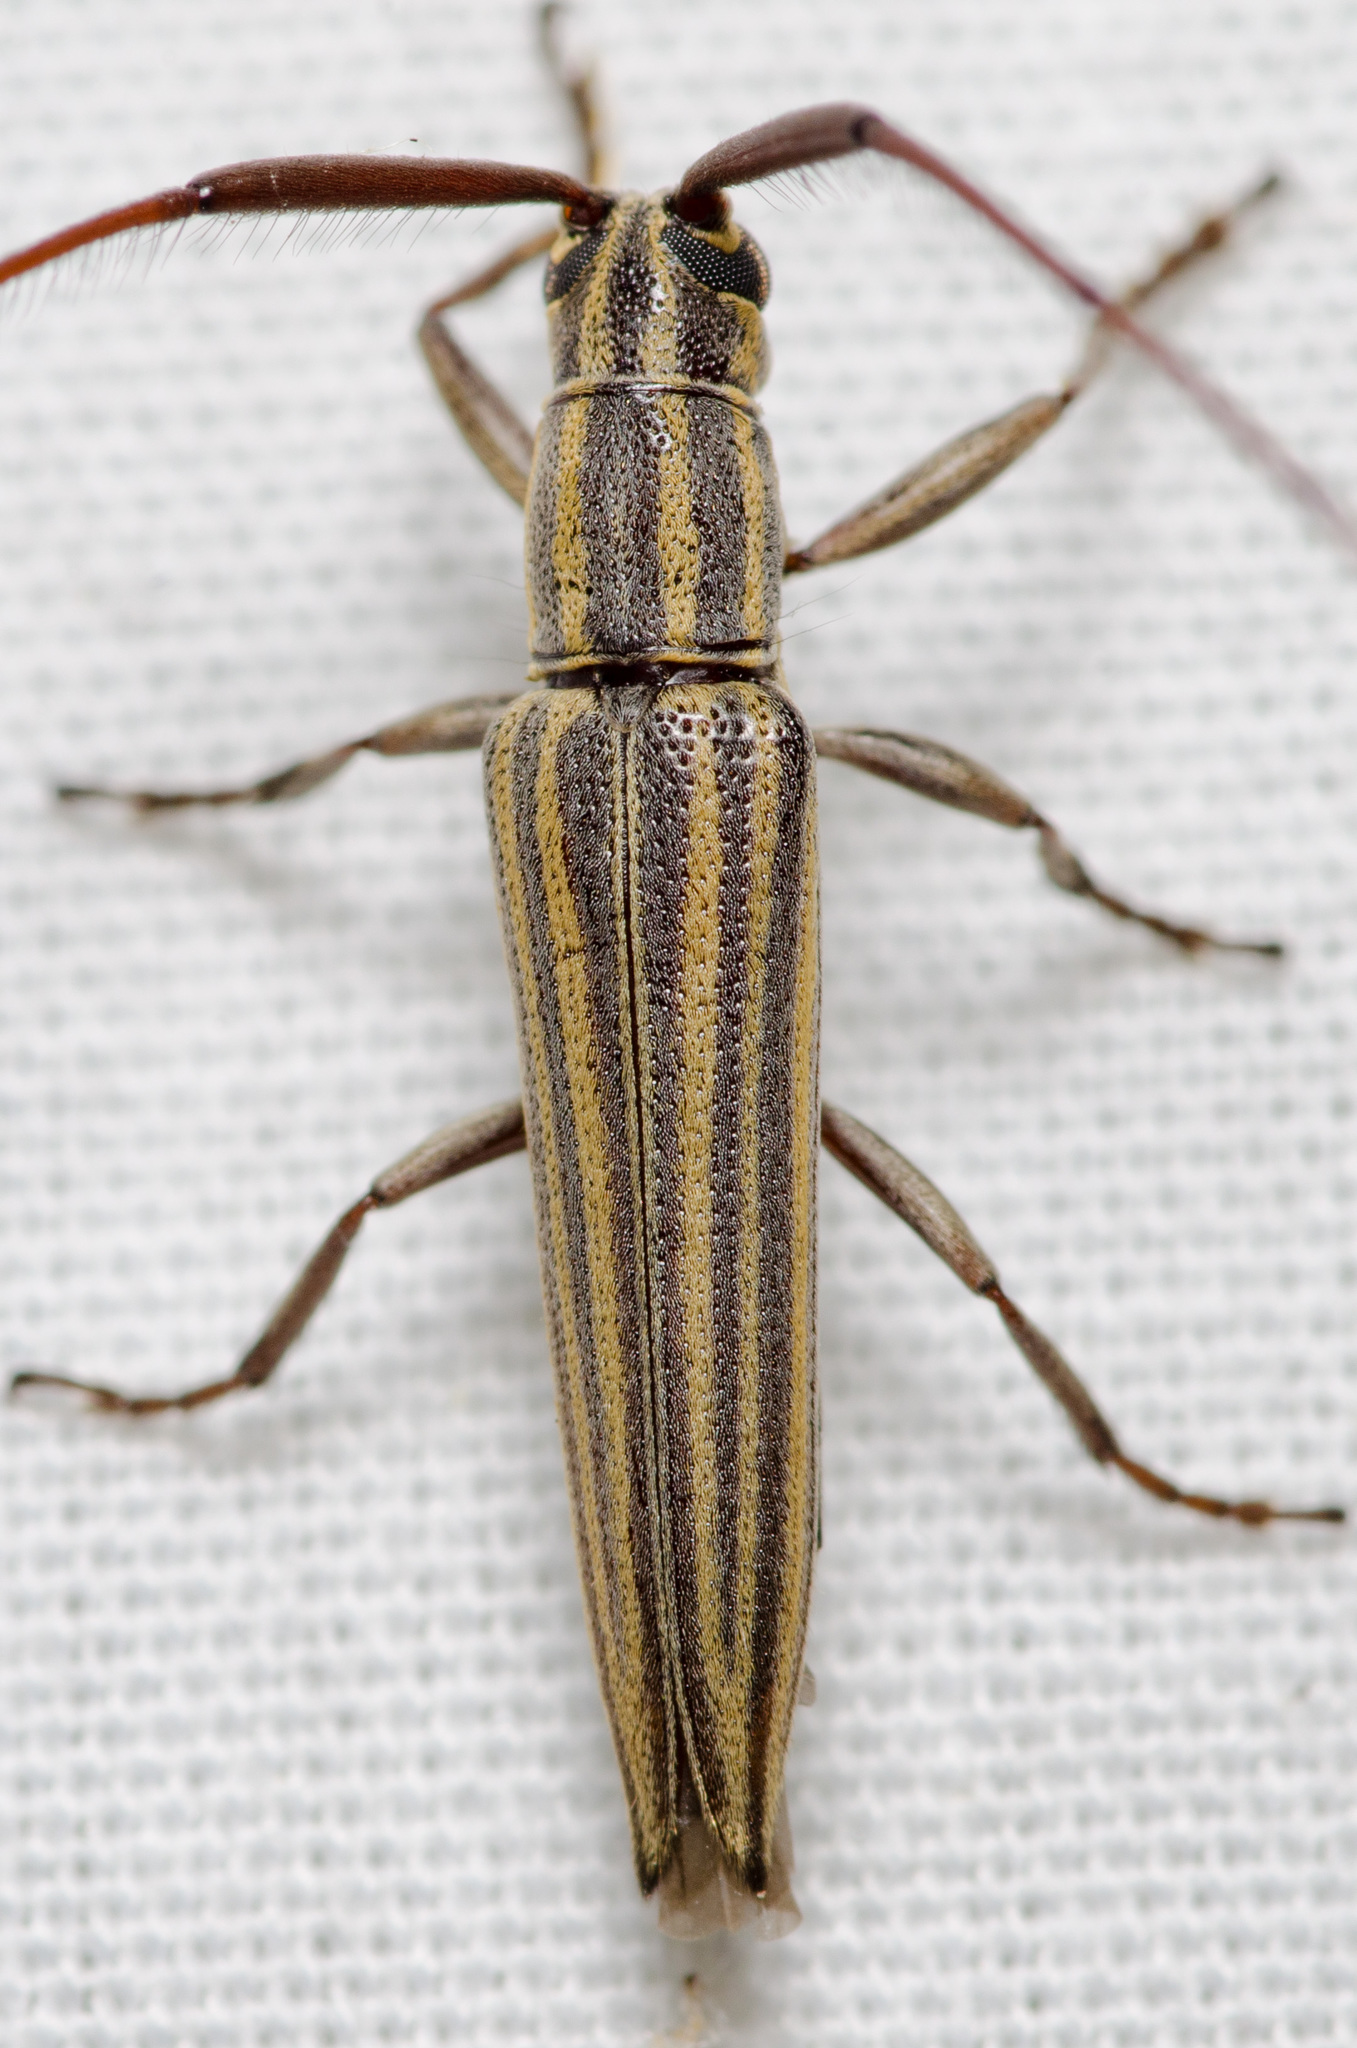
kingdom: Animalia
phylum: Arthropoda
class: Insecta
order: Coleoptera
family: Cerambycidae
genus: Hippopsis
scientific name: Hippopsis
